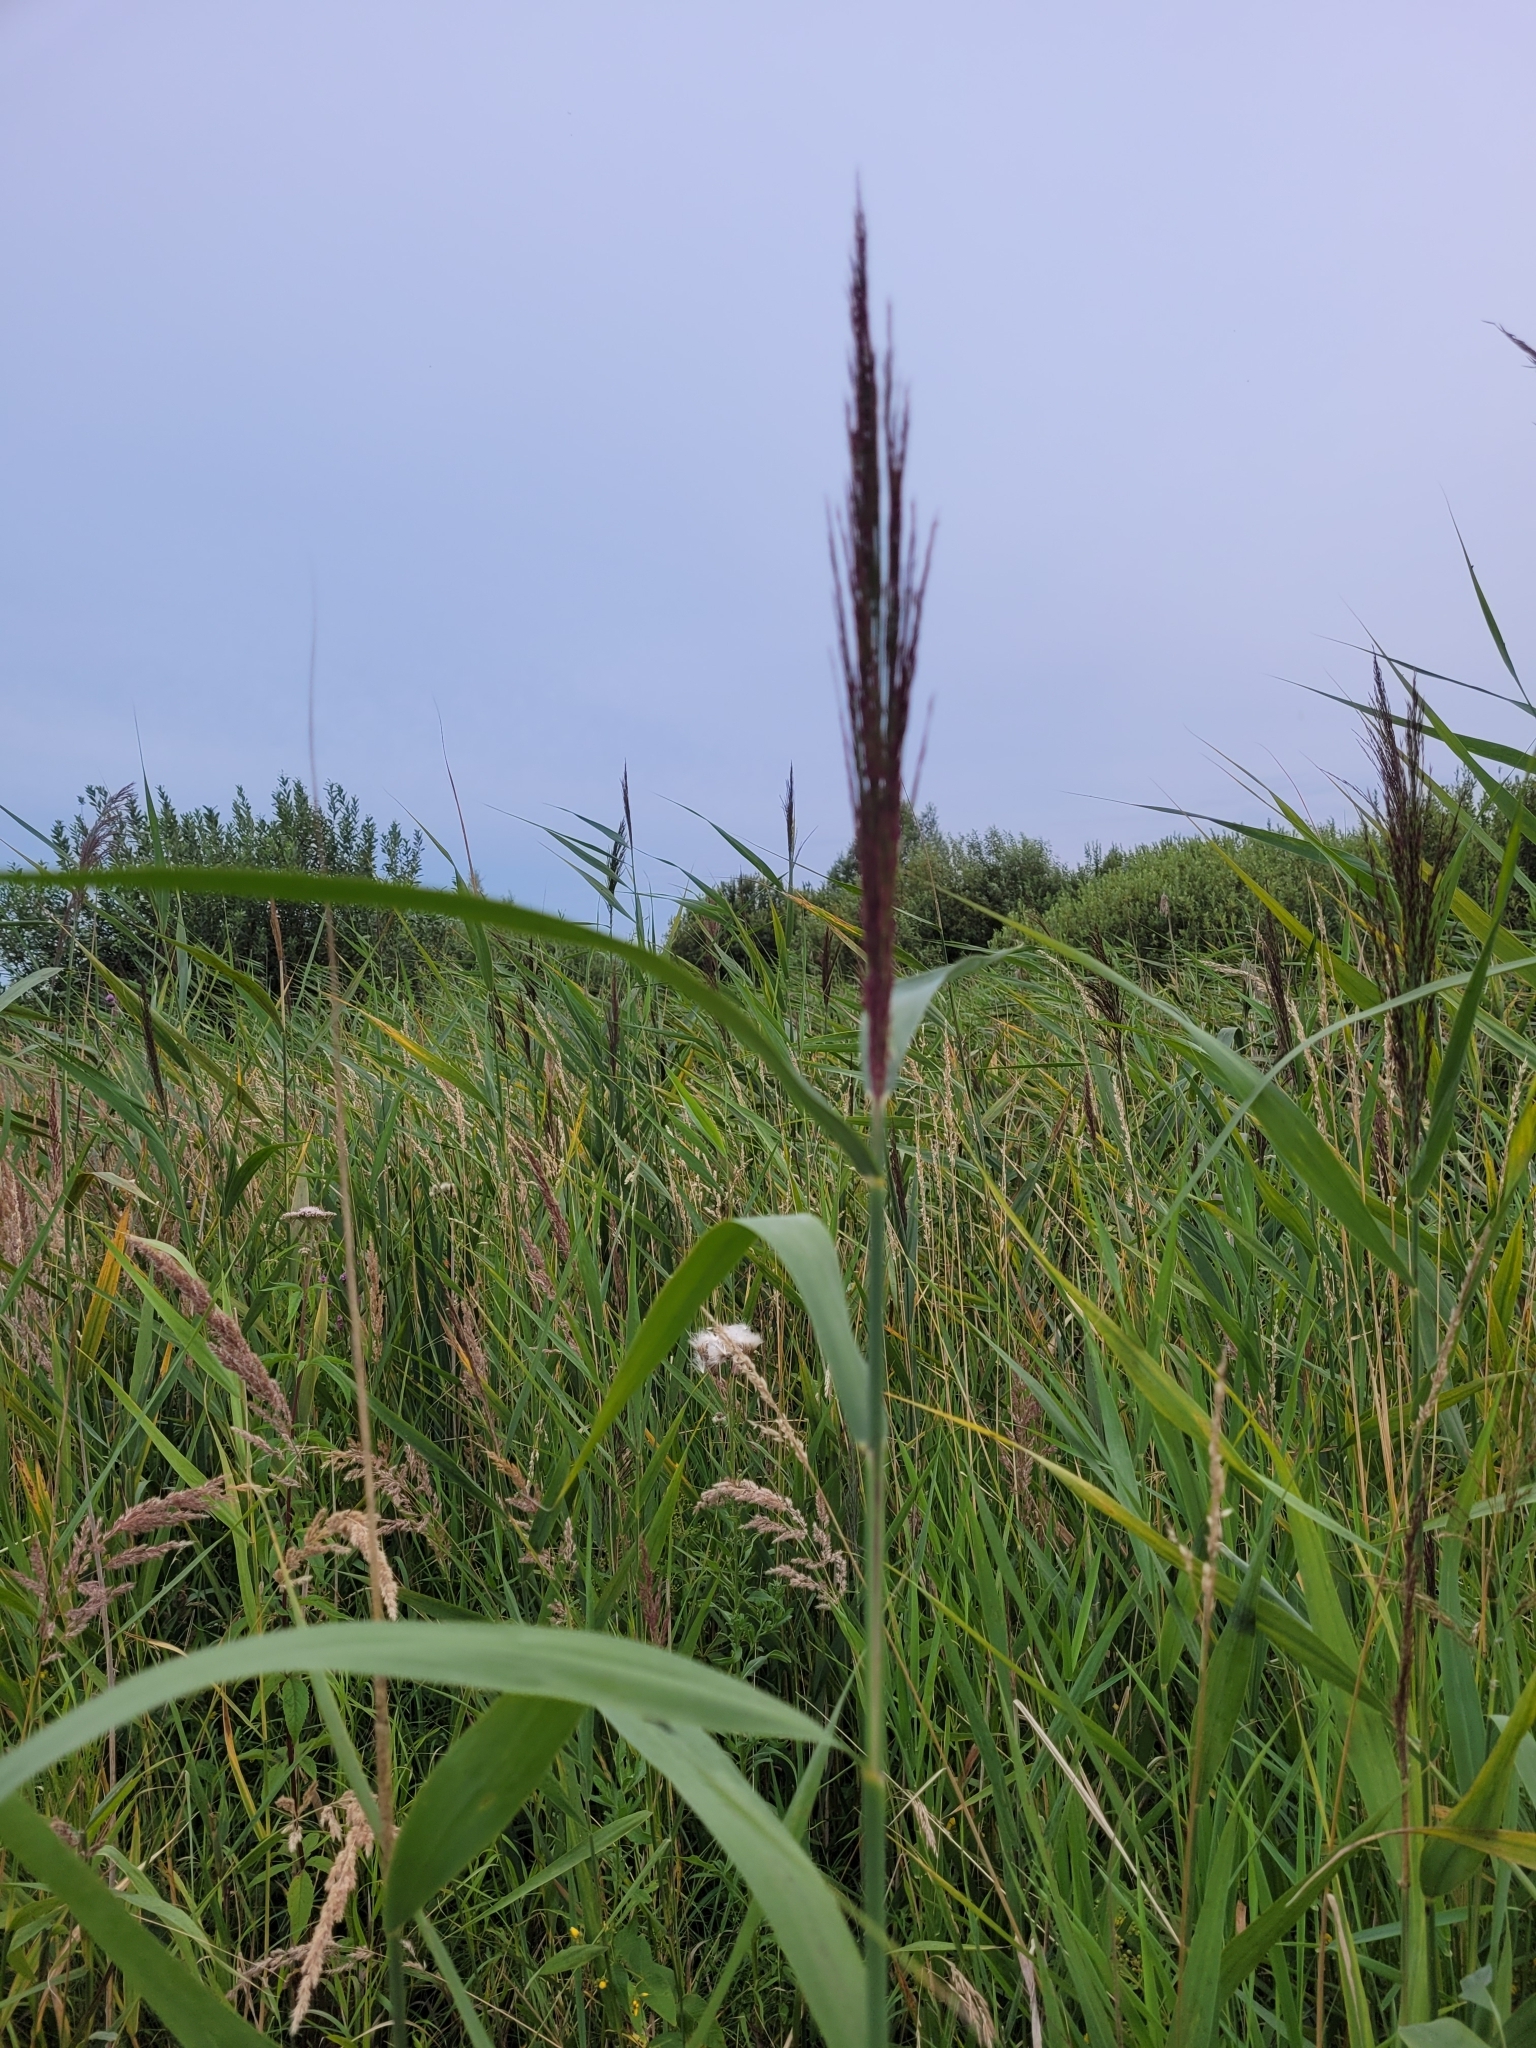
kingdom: Plantae
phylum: Tracheophyta
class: Liliopsida
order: Poales
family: Poaceae
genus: Phragmites
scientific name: Phragmites australis
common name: Common reed
